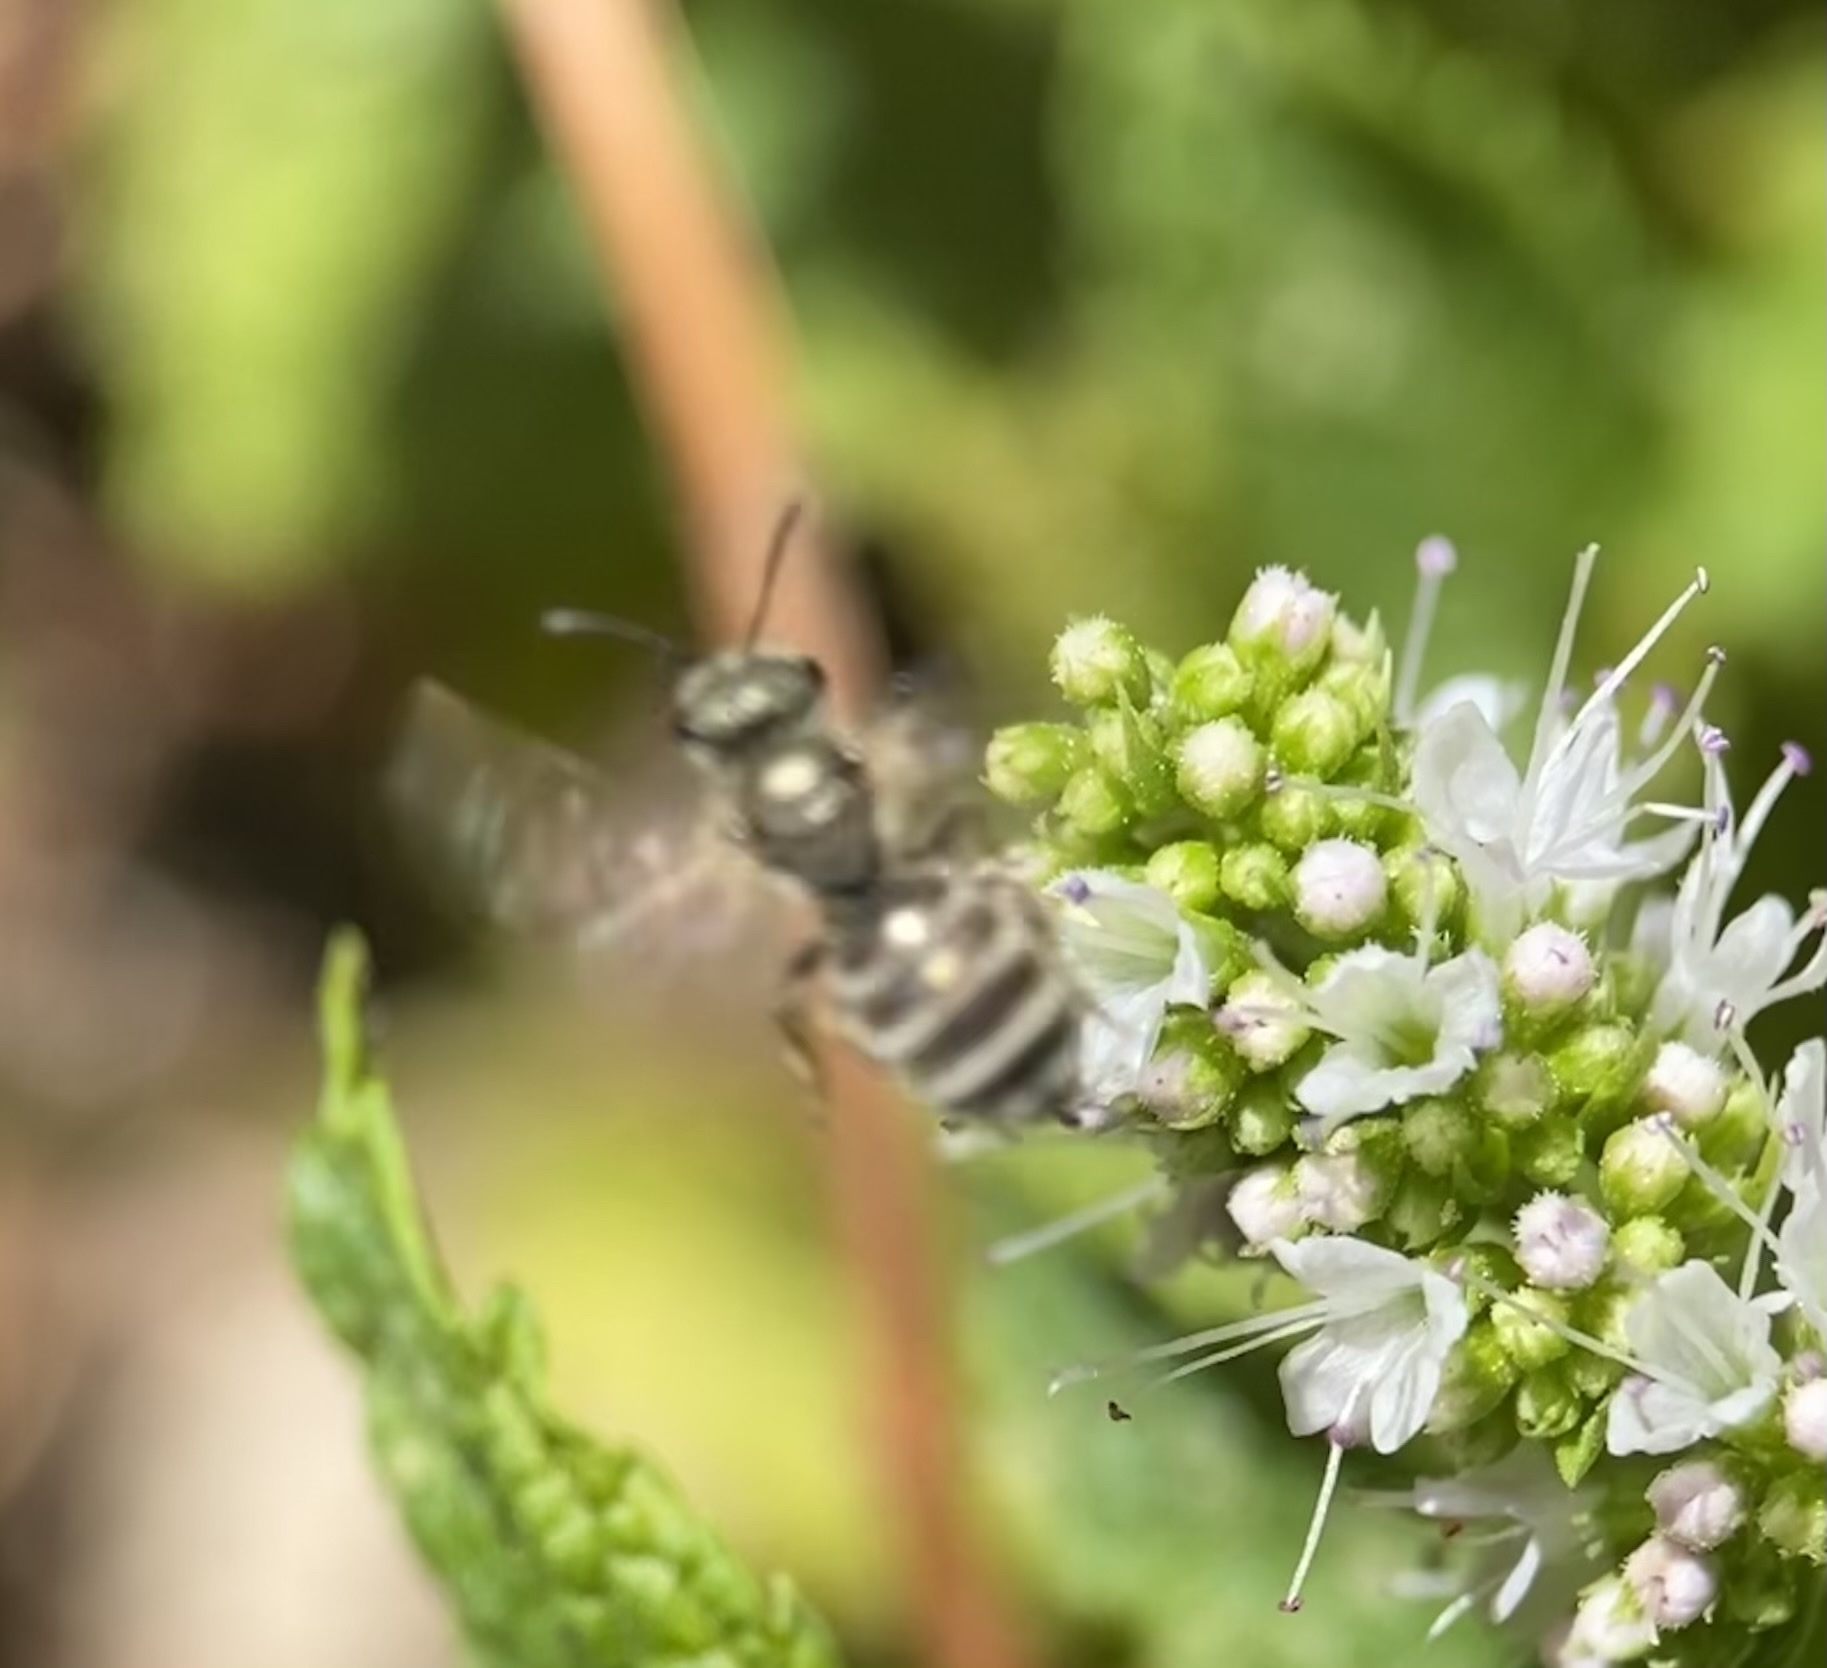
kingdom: Animalia
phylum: Arthropoda
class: Insecta
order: Hymenoptera
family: Halictidae
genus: Halictus
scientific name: Halictus tripartitus
